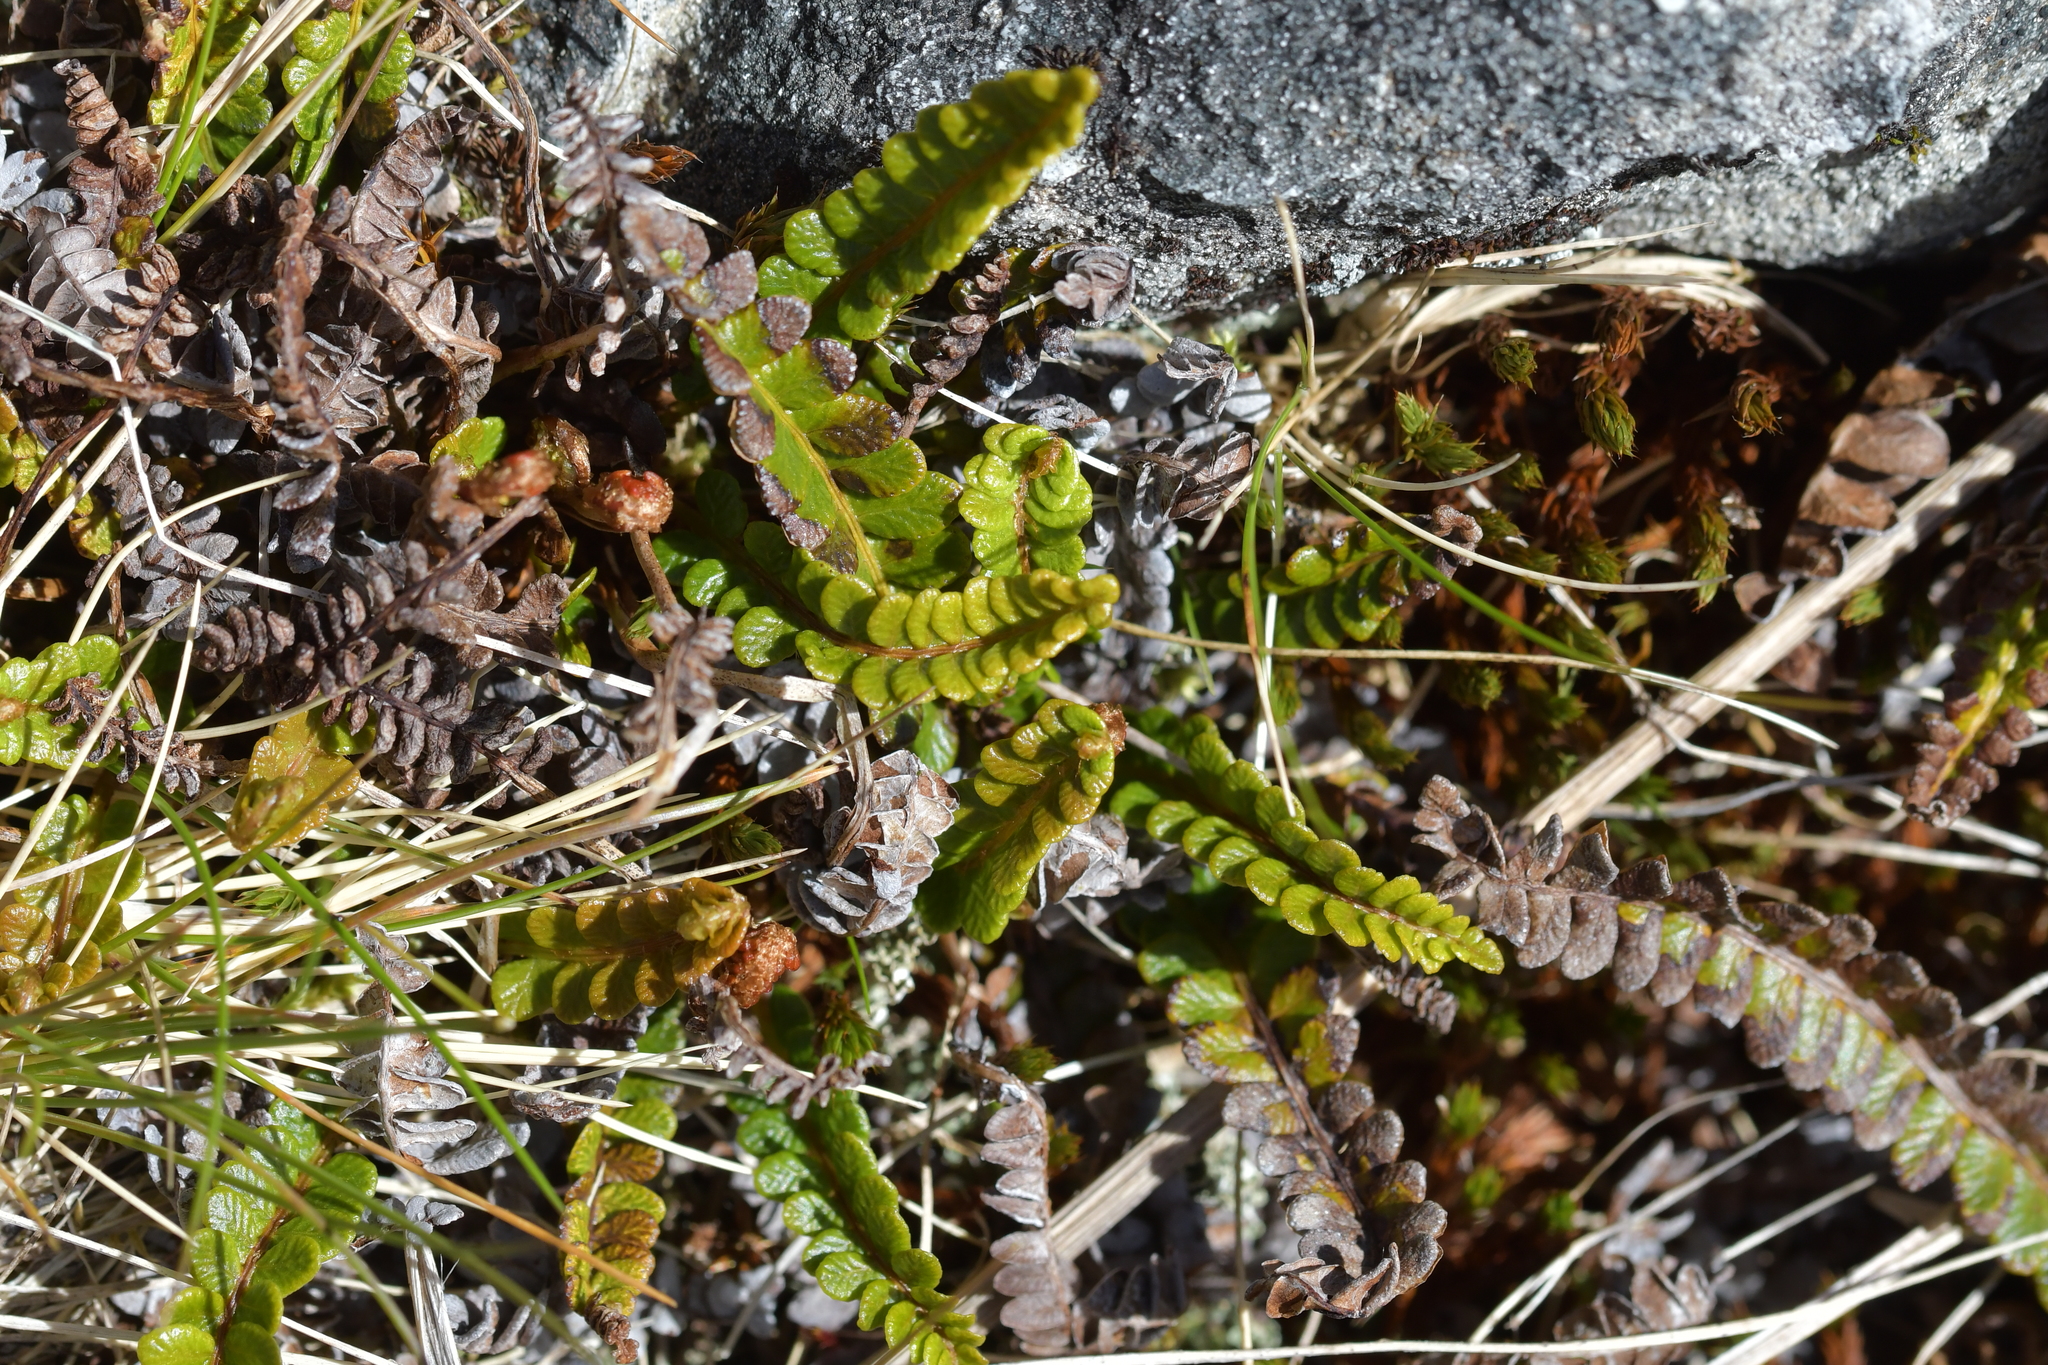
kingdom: Plantae
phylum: Tracheophyta
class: Polypodiopsida
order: Polypodiales
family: Blechnaceae
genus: Austroblechnum
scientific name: Austroblechnum penna-marina
